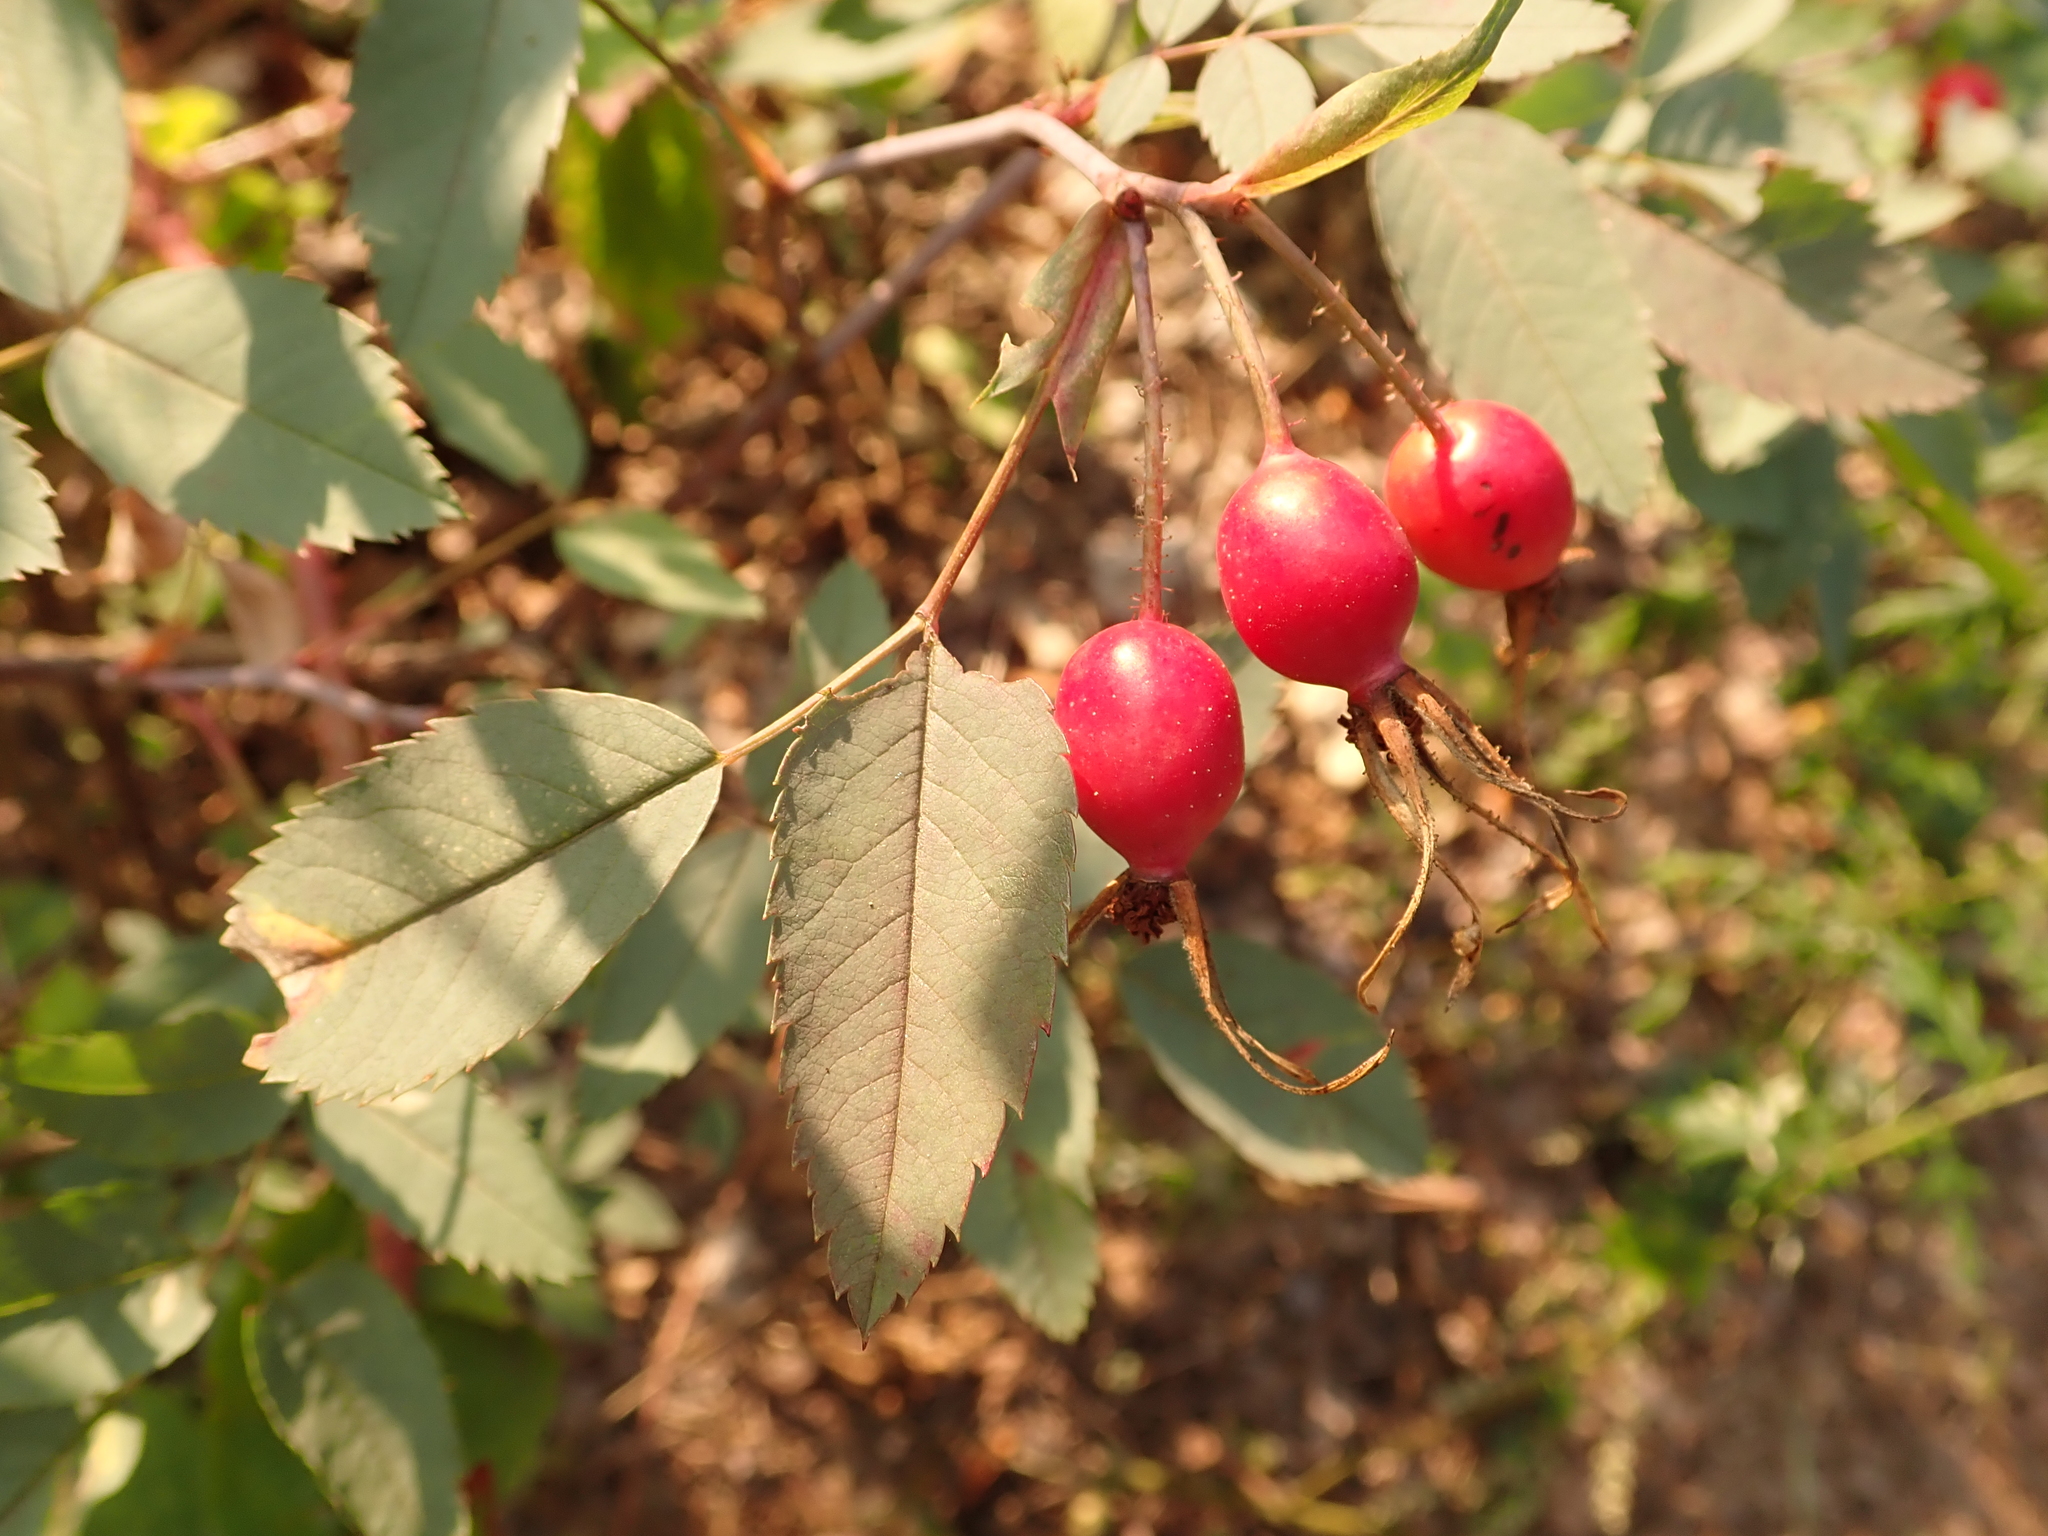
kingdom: Plantae
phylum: Tracheophyta
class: Magnoliopsida
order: Rosales
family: Rosaceae
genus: Rosa
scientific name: Rosa glauca
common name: Redleaf rose
